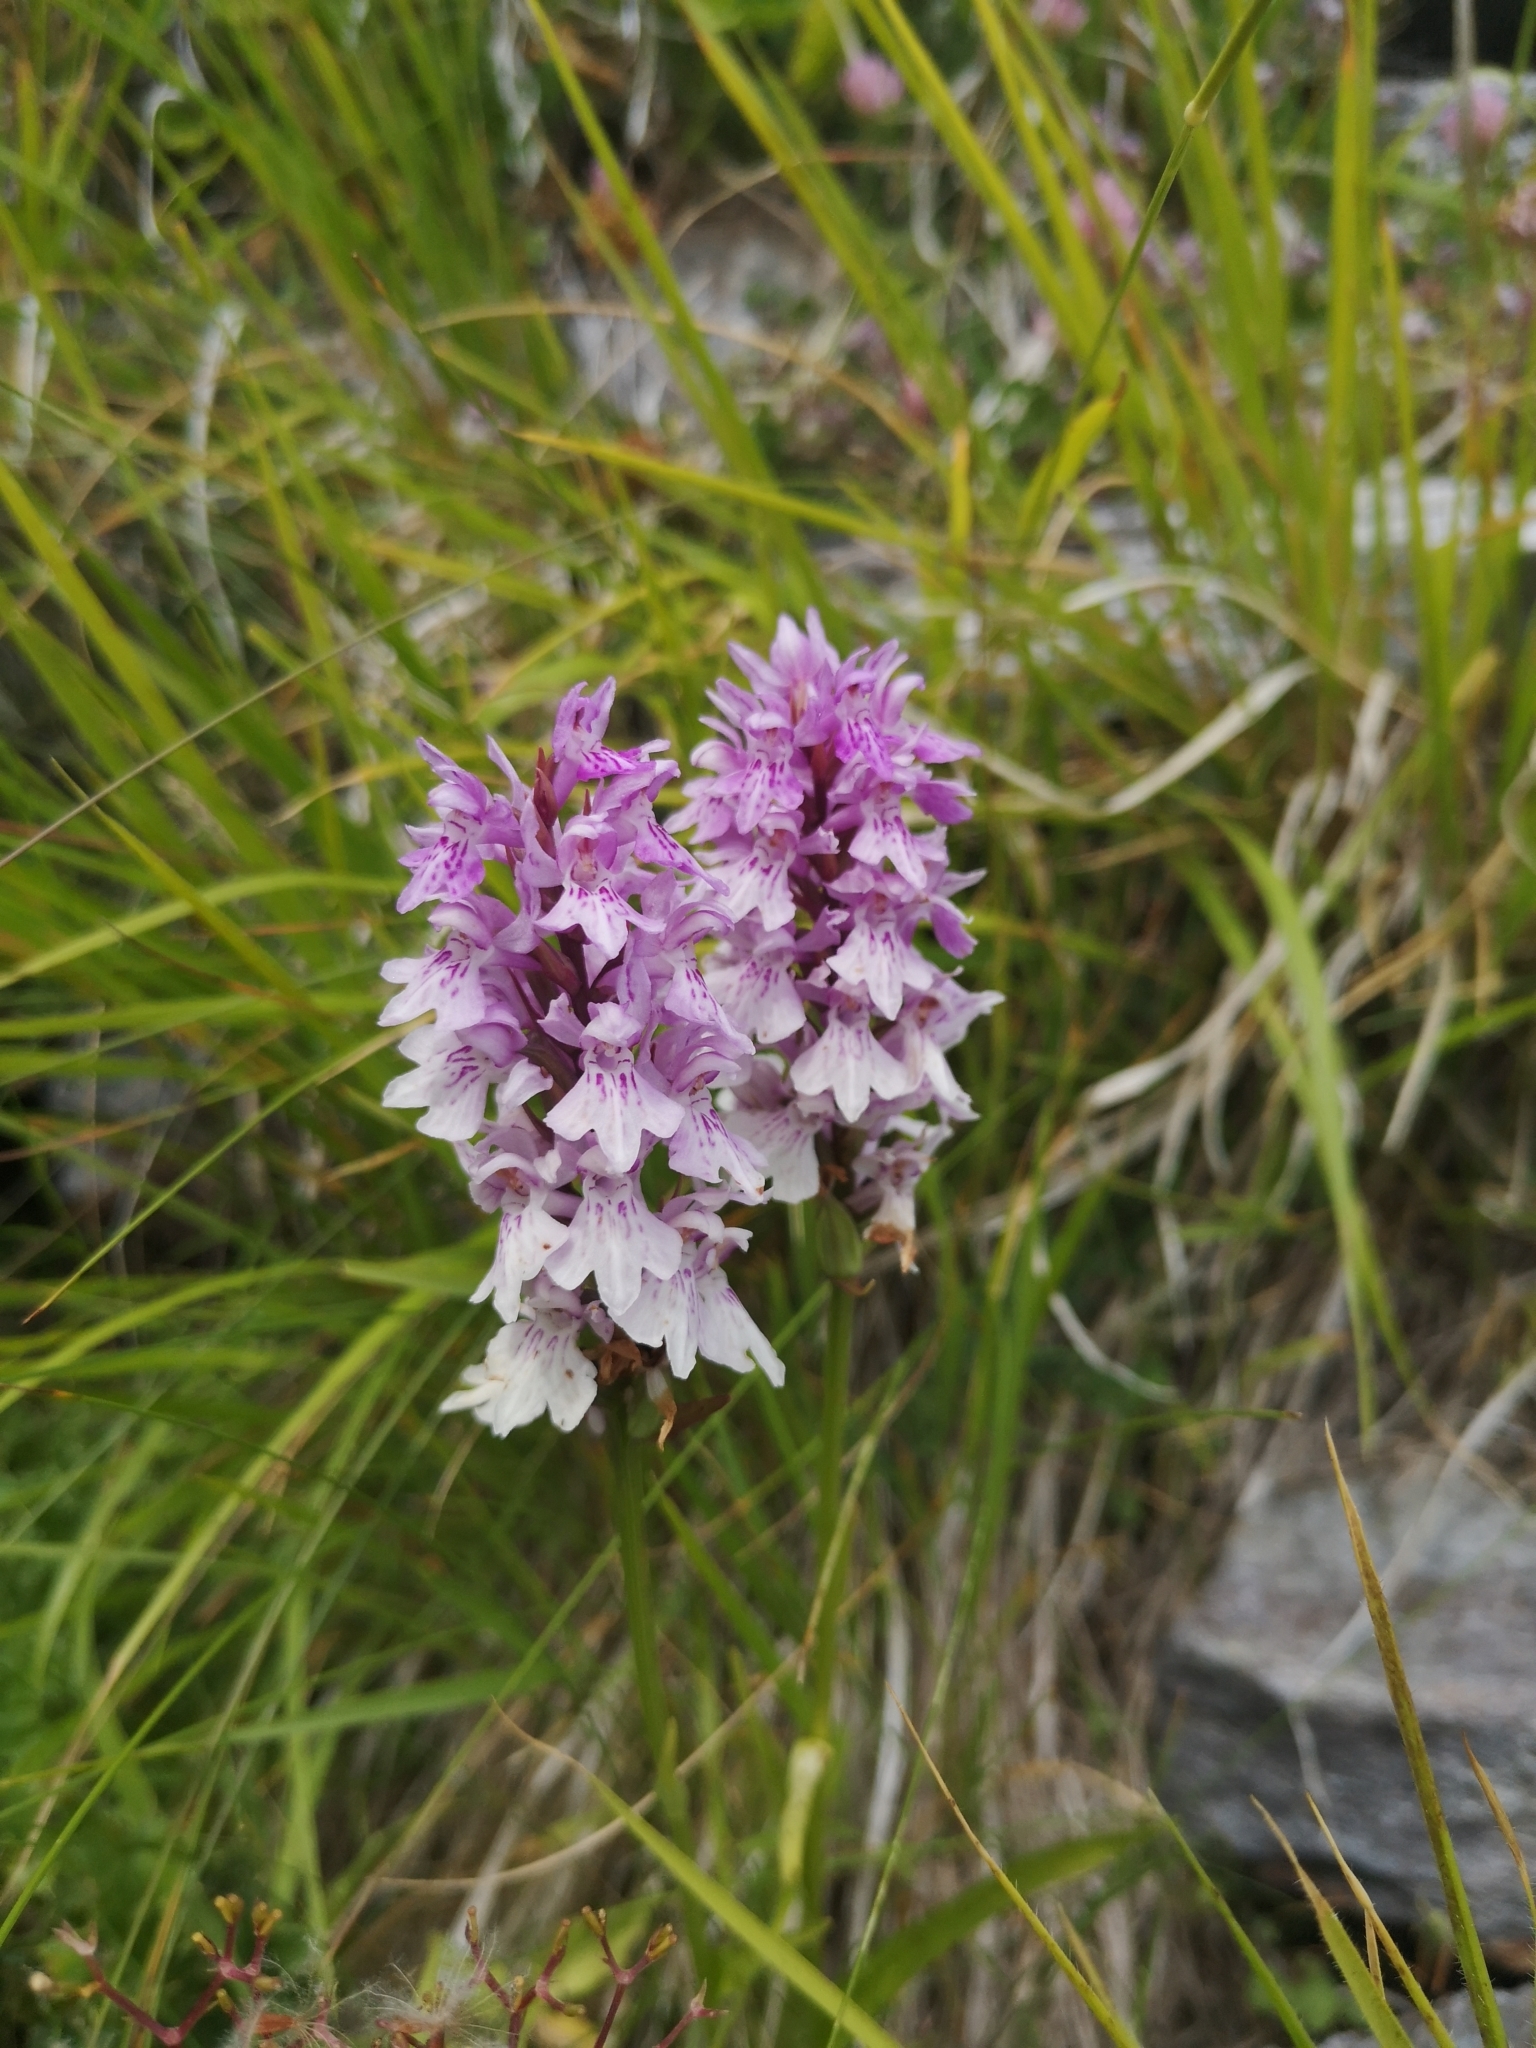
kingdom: Plantae
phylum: Tracheophyta
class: Liliopsida
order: Asparagales
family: Orchidaceae
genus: Dactylorhiza
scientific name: Dactylorhiza maculata
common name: Heath spotted-orchid
